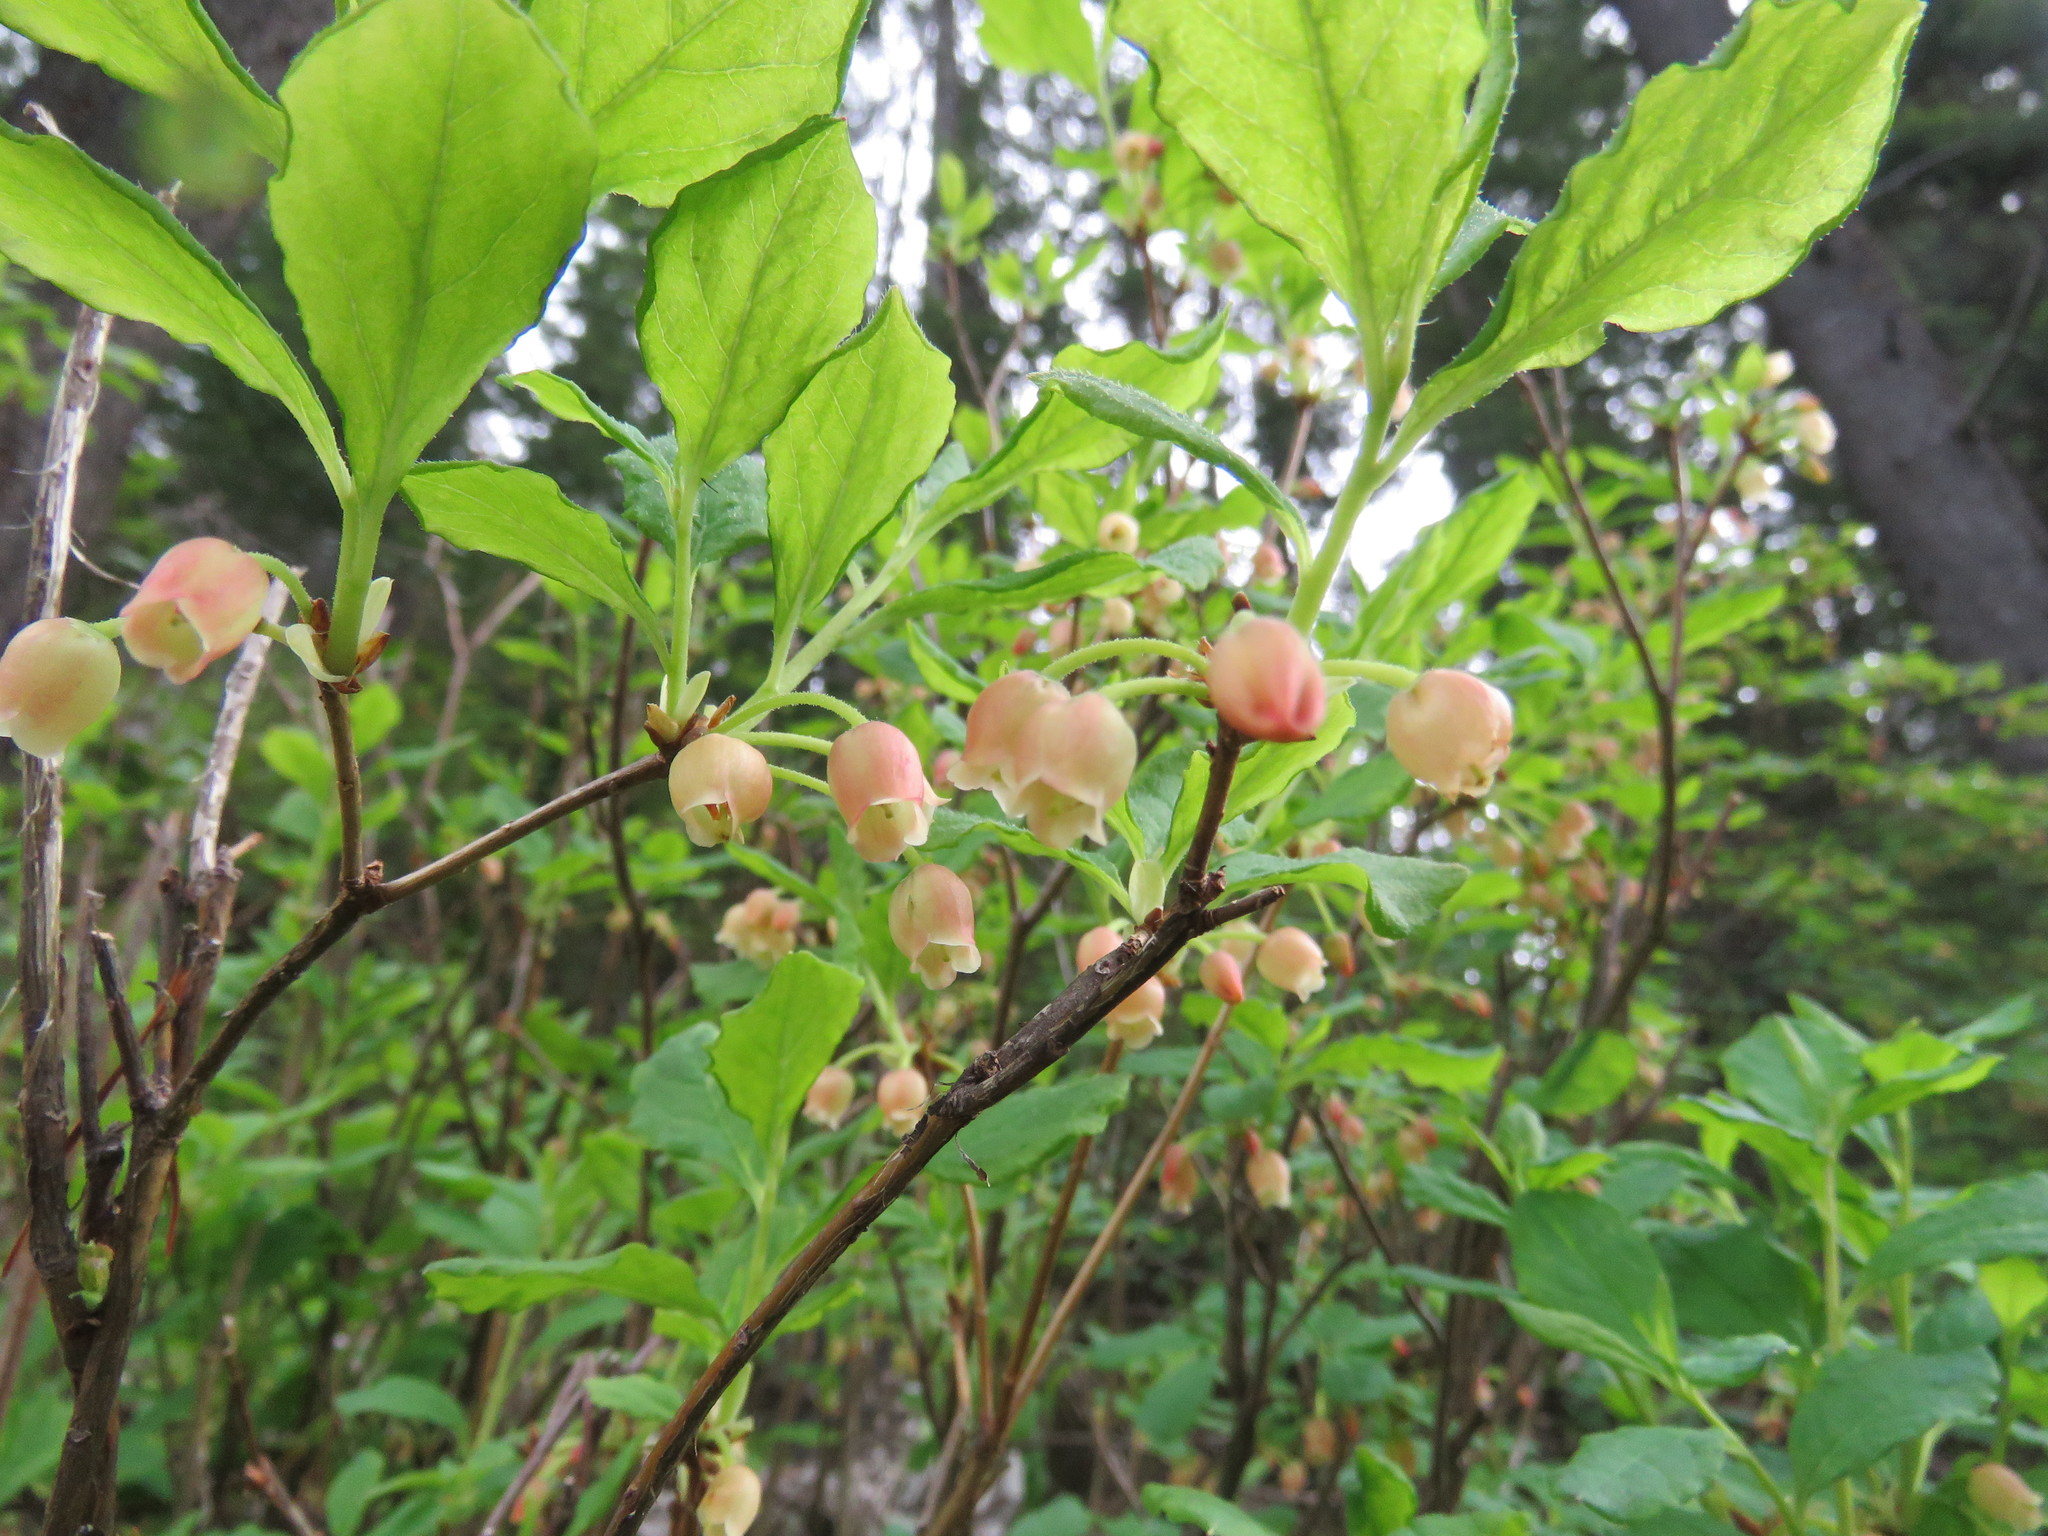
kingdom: Plantae
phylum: Tracheophyta
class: Magnoliopsida
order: Ericales
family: Ericaceae
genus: Rhododendron
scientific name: Rhododendron menziesii
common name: Pacific menziesia
